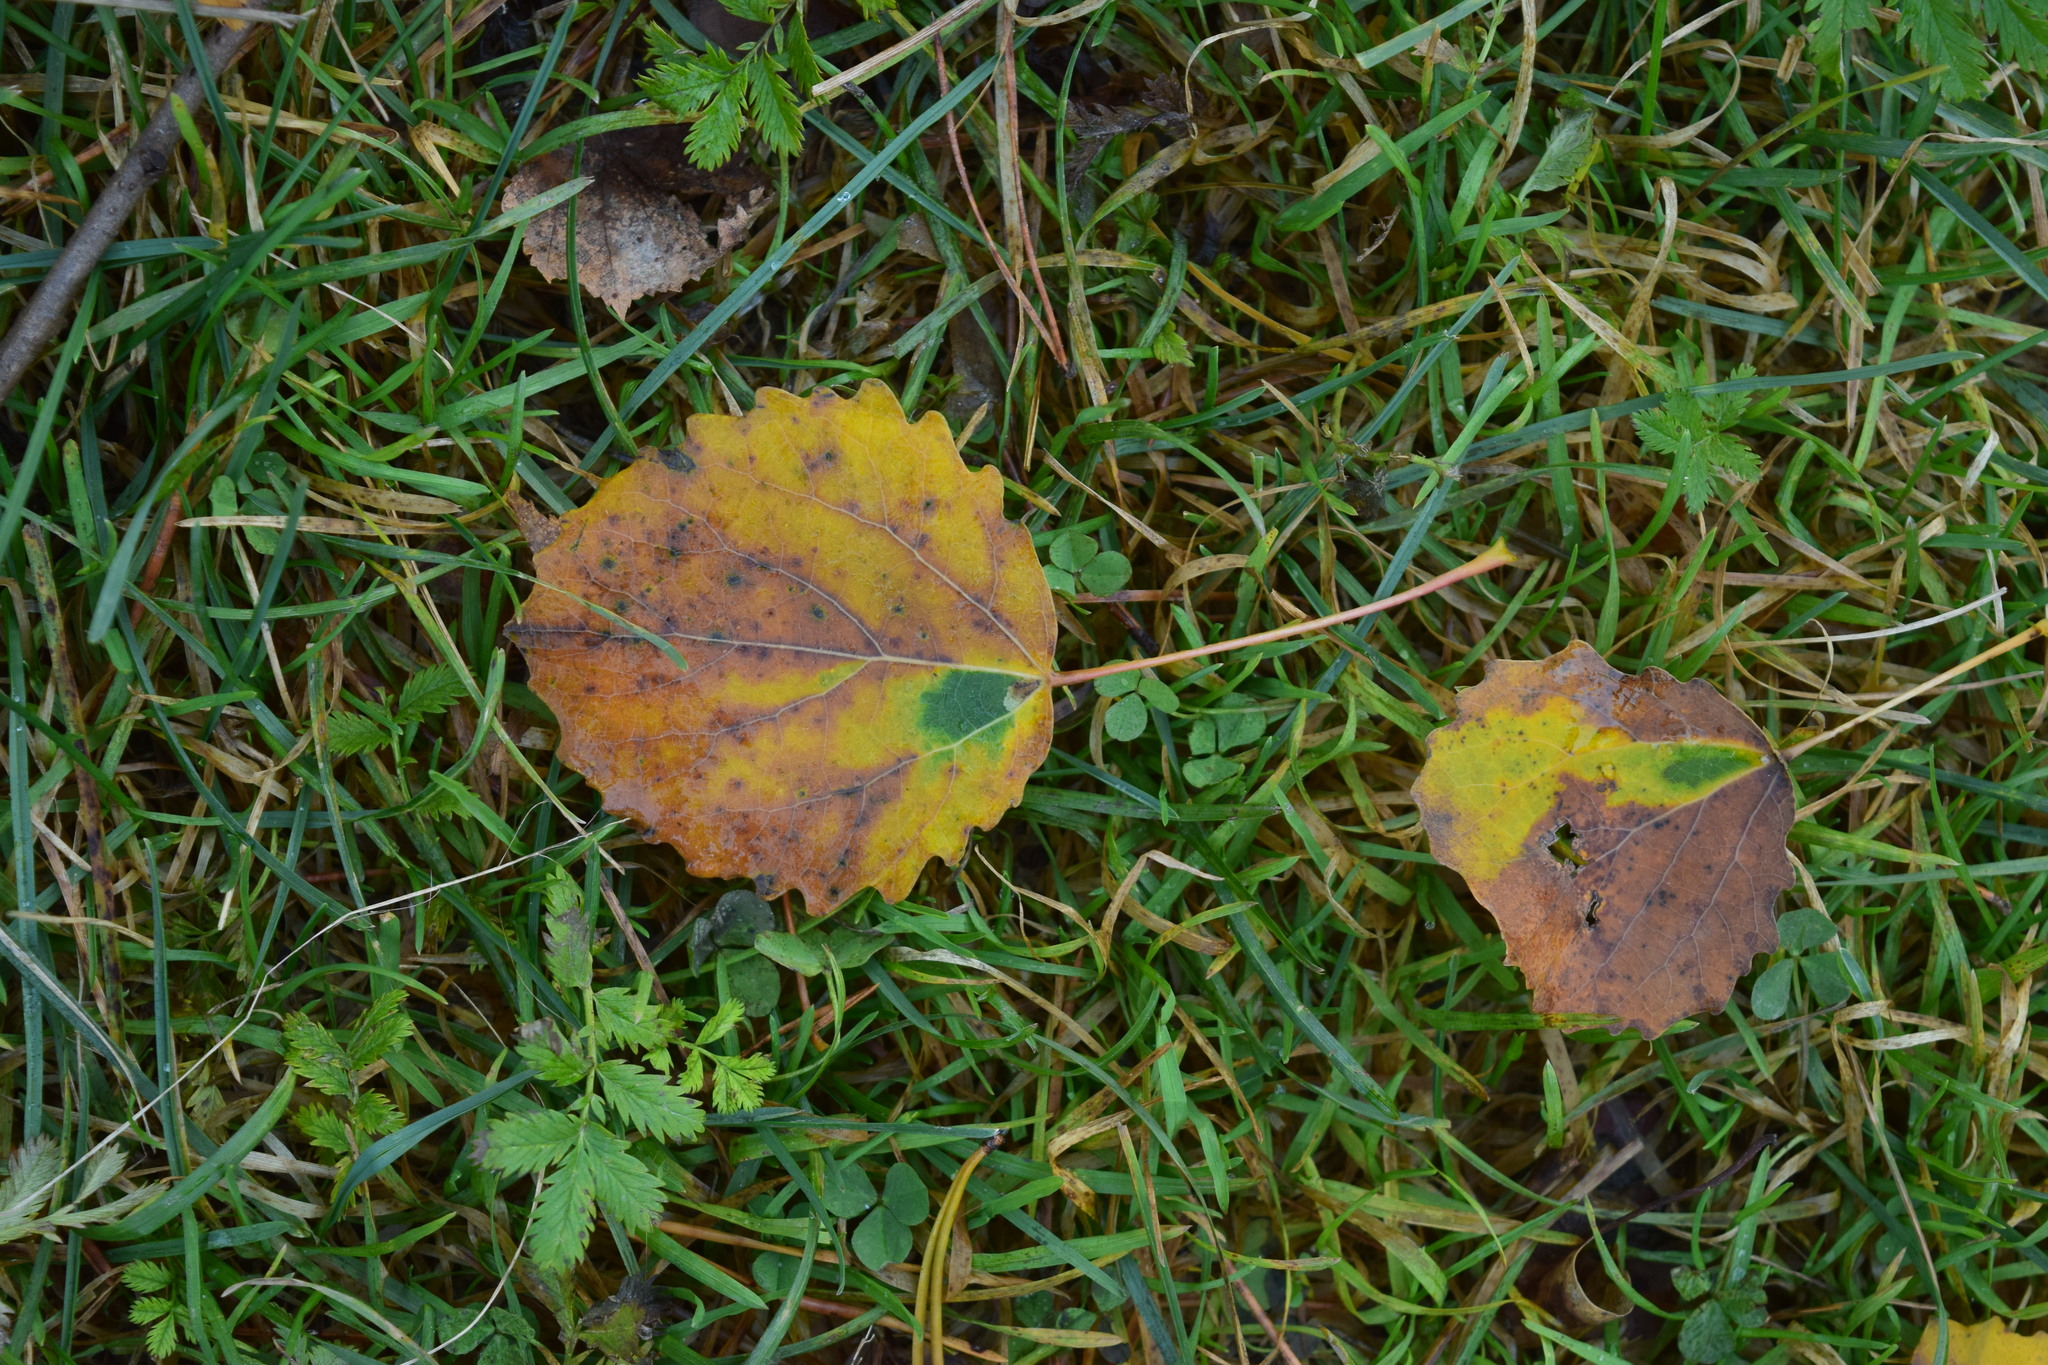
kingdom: Plantae
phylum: Tracheophyta
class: Magnoliopsida
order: Malpighiales
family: Salicaceae
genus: Populus
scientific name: Populus tremula
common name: European aspen
